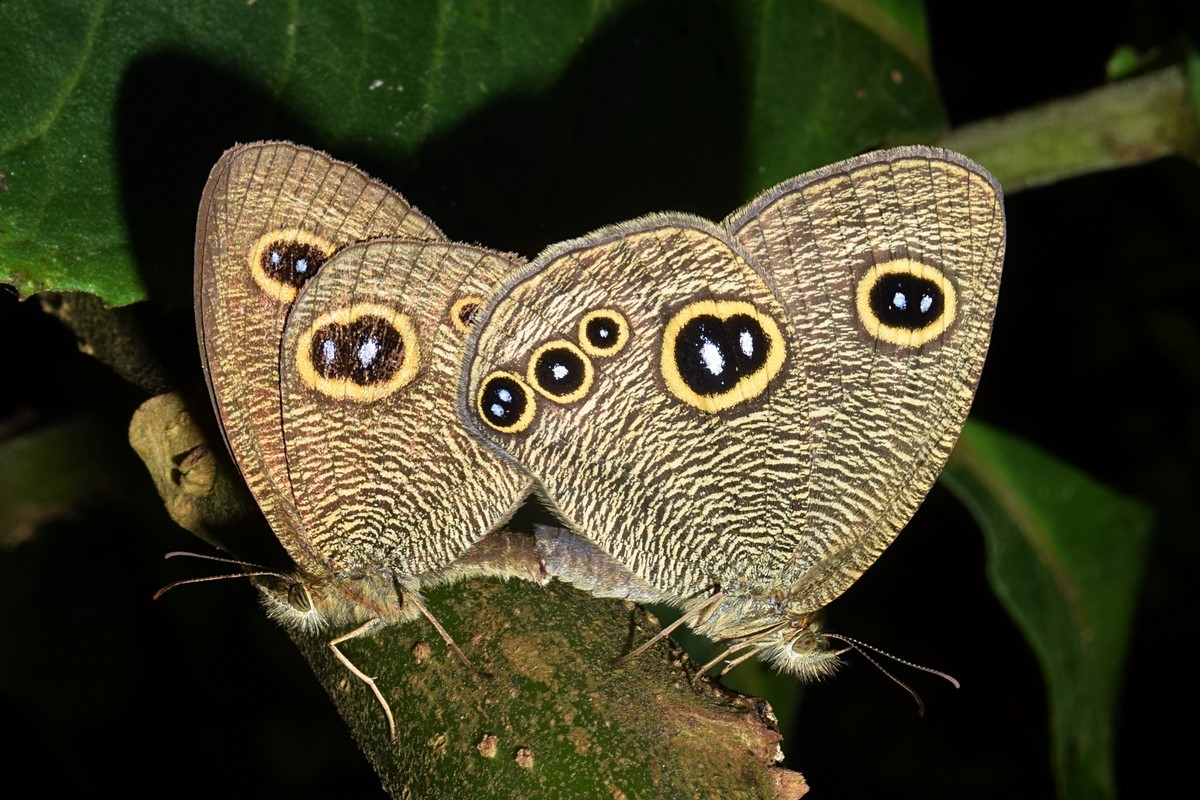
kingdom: Animalia
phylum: Arthropoda
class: Insecta
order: Lepidoptera
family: Nymphalidae
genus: Ypthima
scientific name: Ypthima nikaea
